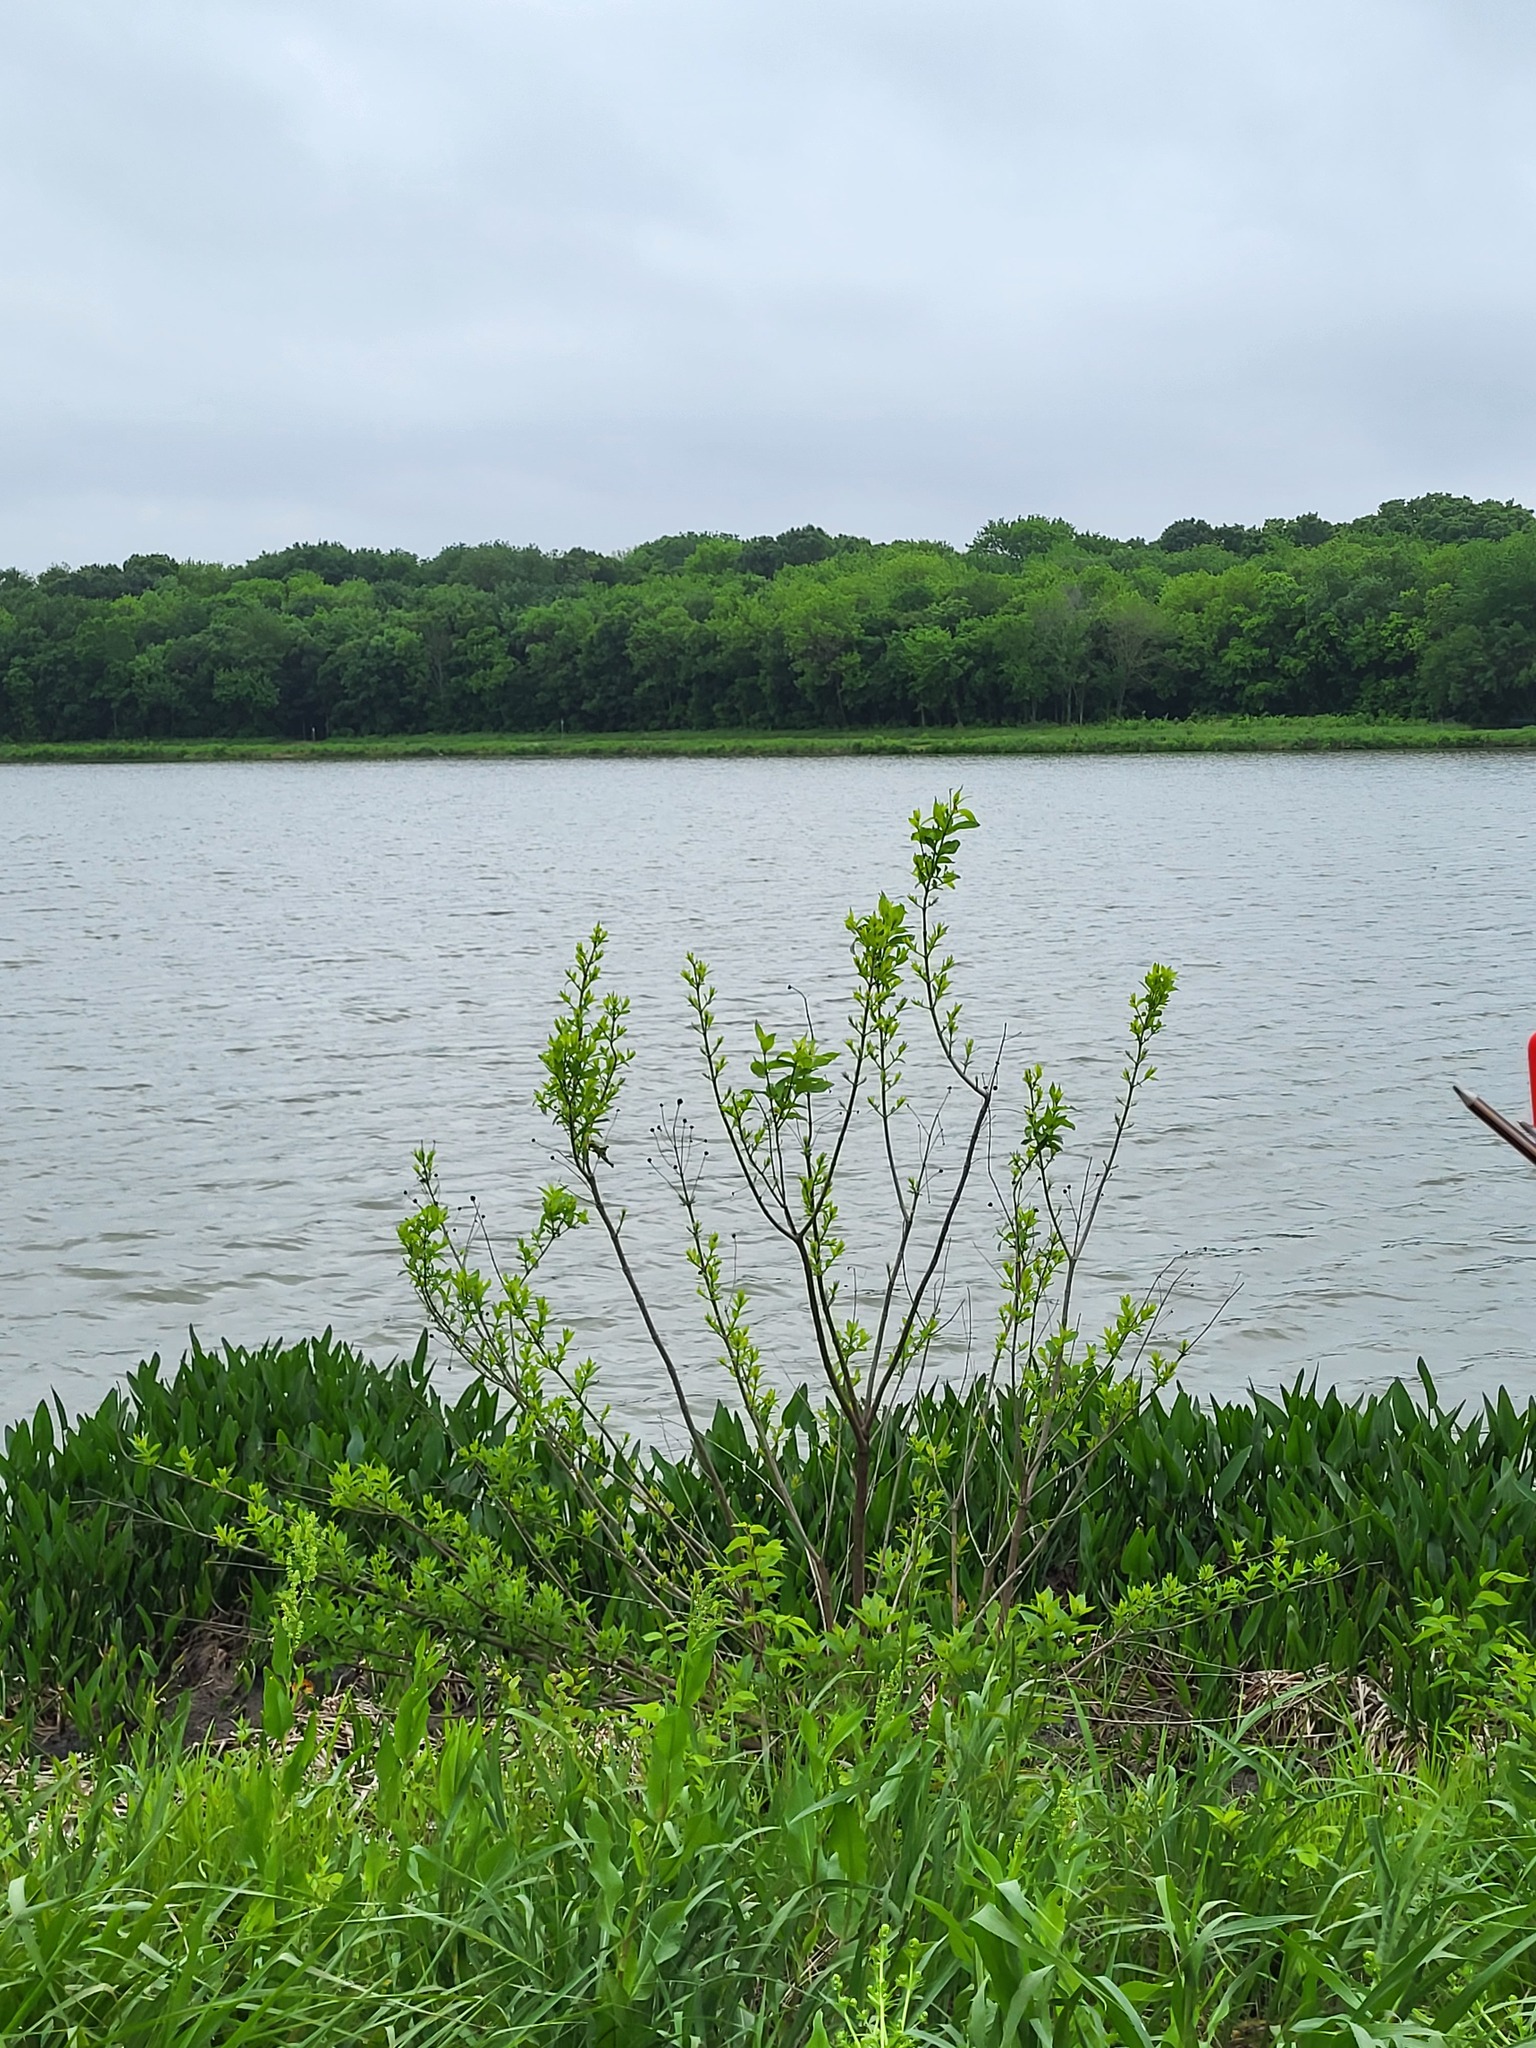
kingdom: Plantae
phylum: Tracheophyta
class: Magnoliopsida
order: Gentianales
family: Rubiaceae
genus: Cephalanthus
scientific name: Cephalanthus occidentalis
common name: Button-willow
